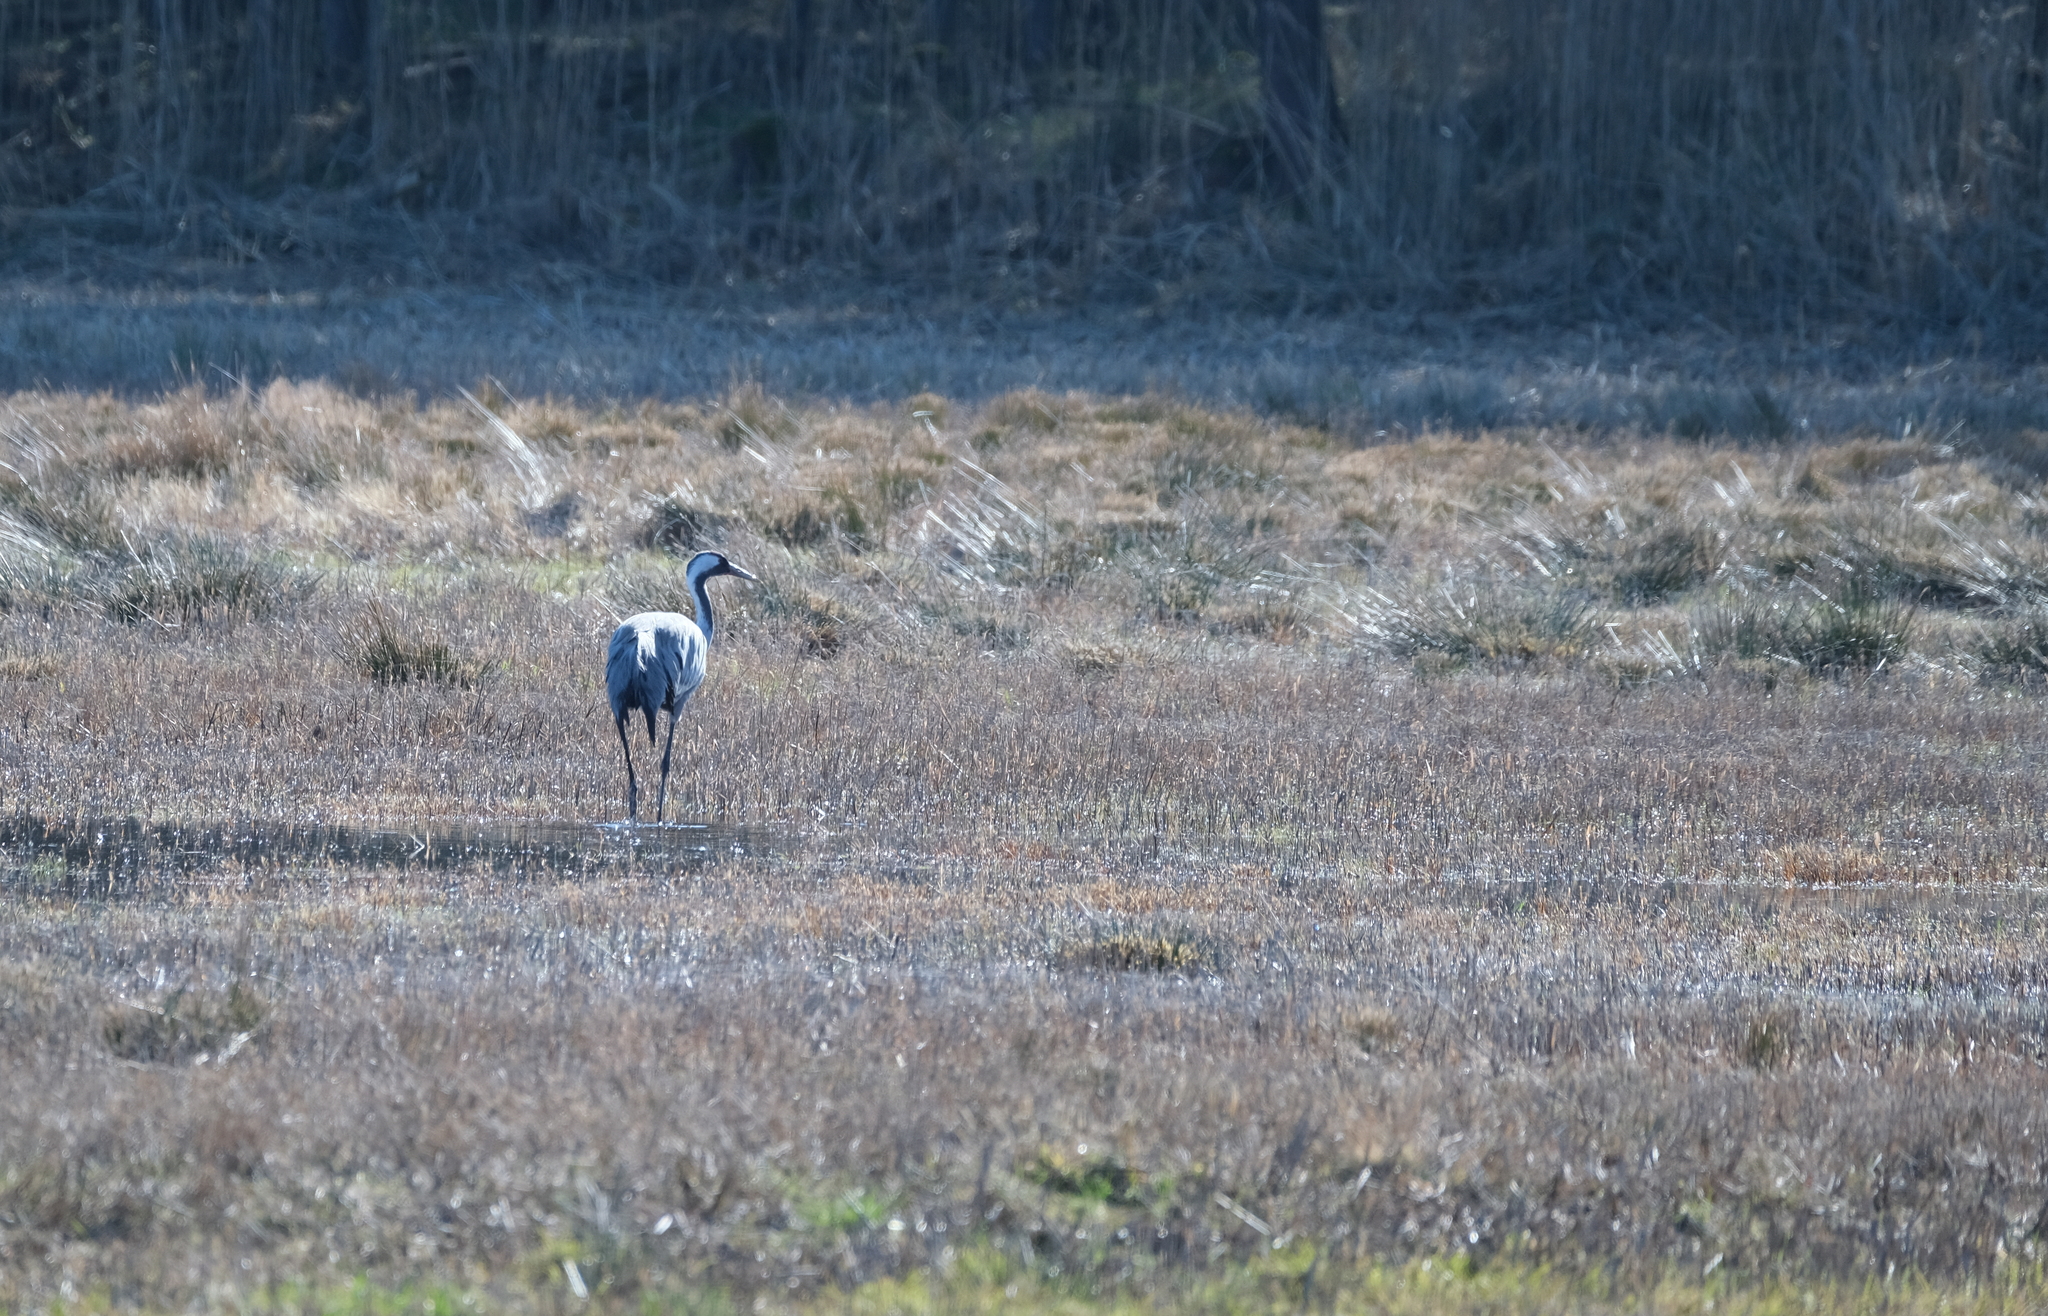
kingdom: Animalia
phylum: Chordata
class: Aves
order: Gruiformes
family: Gruidae
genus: Grus
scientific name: Grus grus
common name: Common crane
